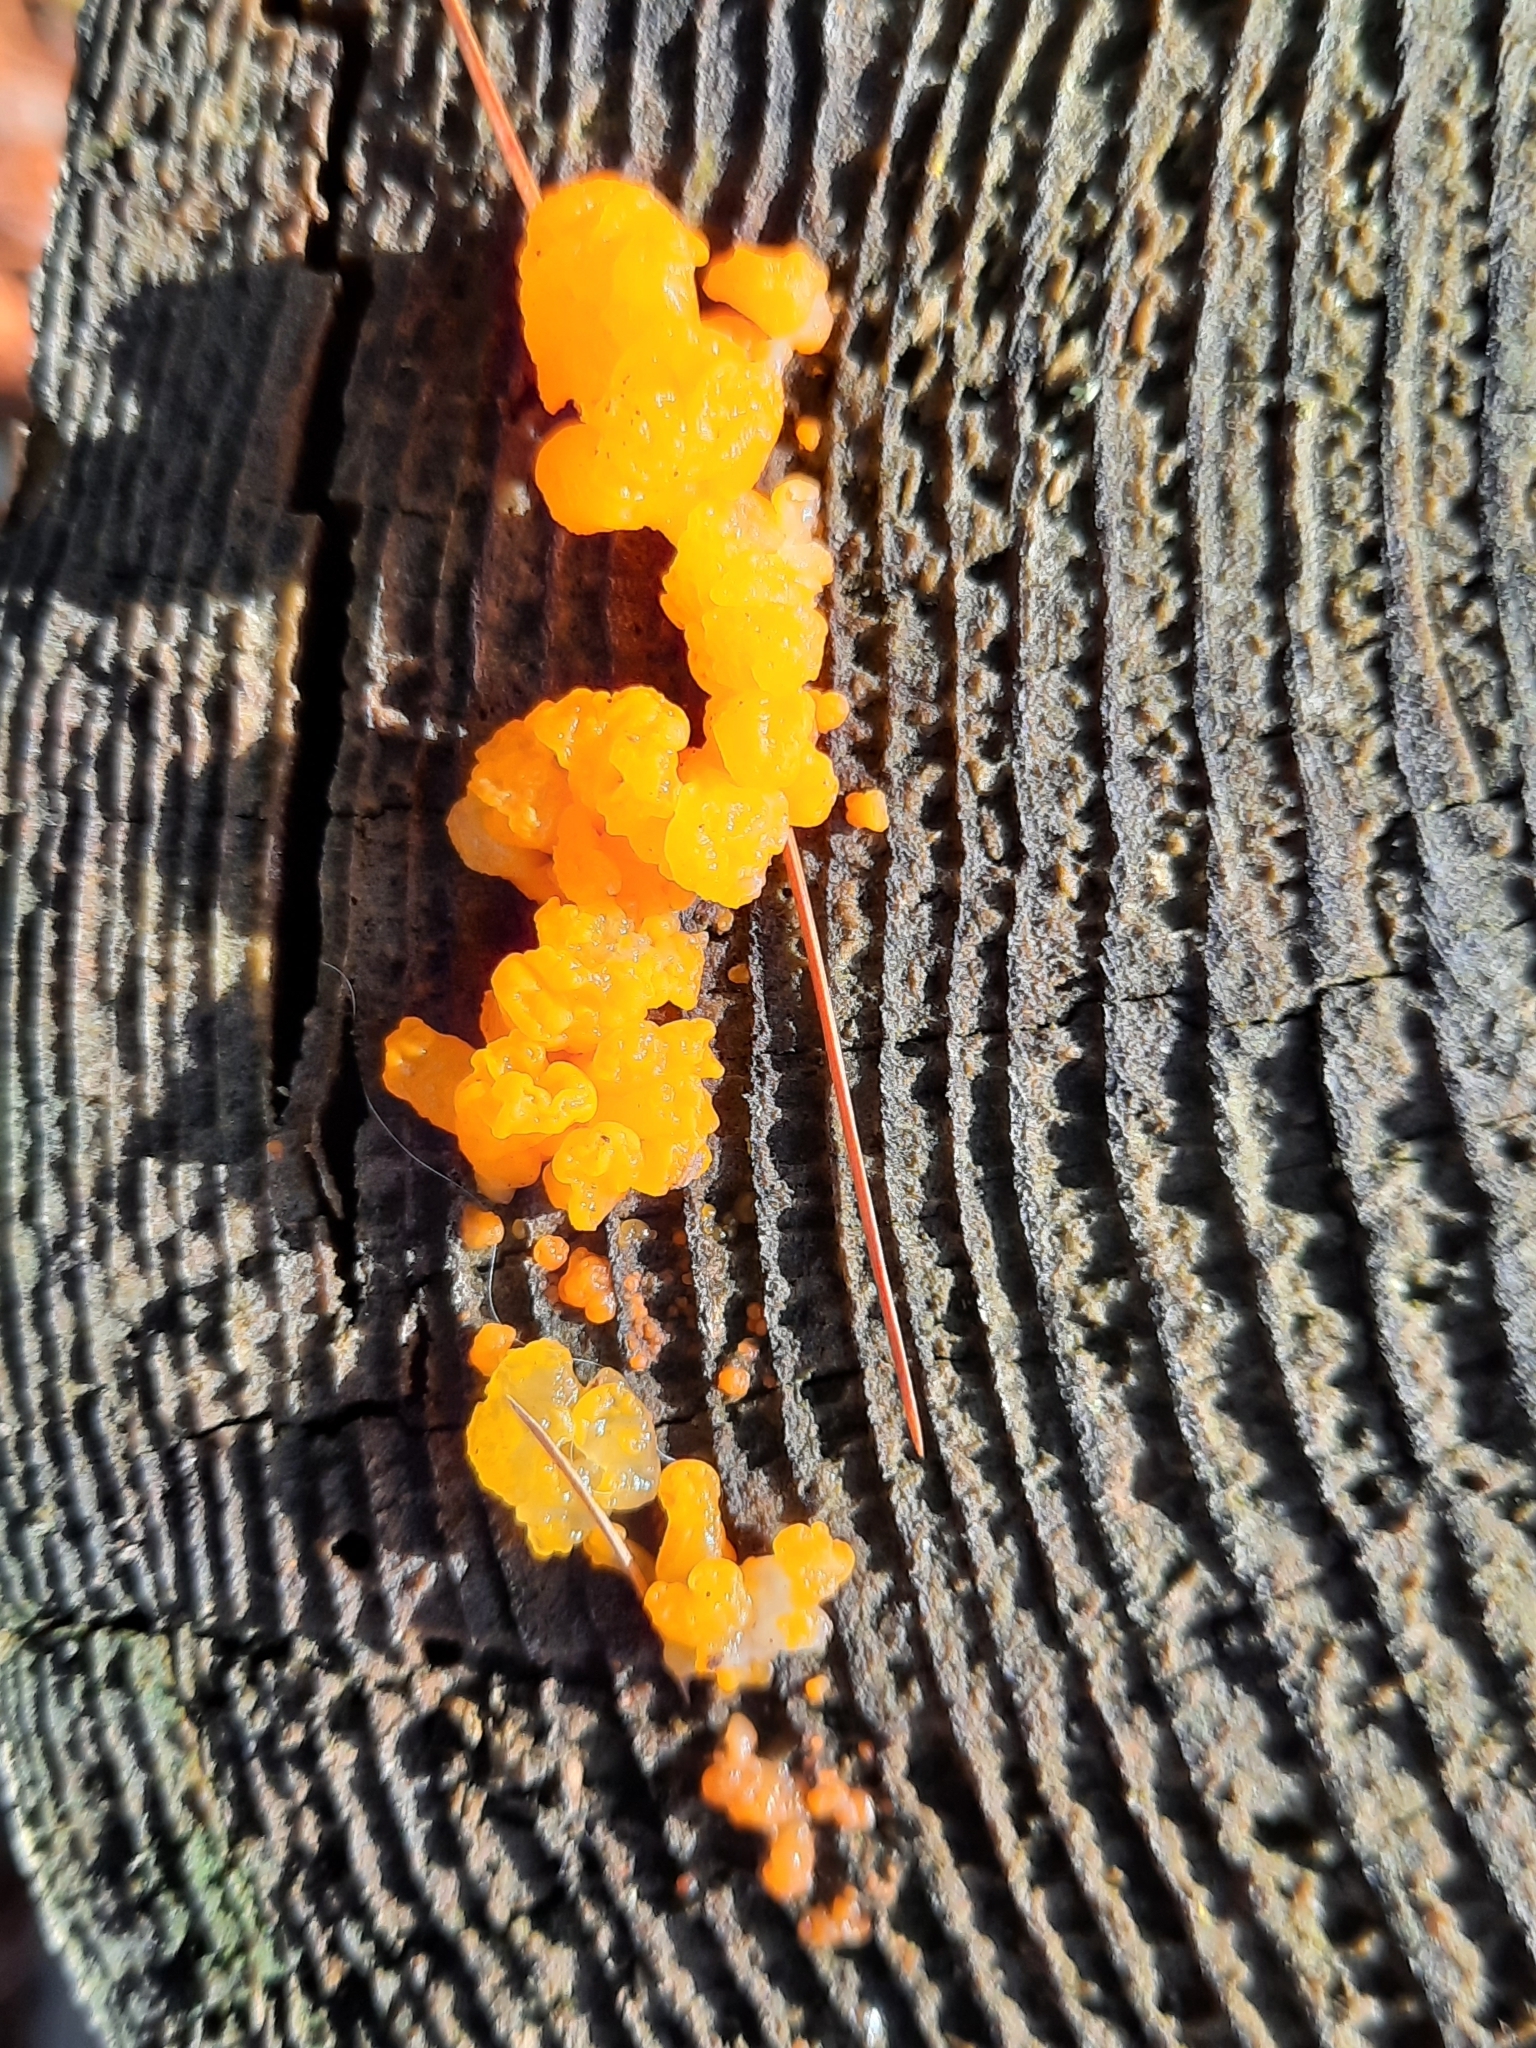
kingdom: Fungi
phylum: Basidiomycota
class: Dacrymycetes
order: Dacrymycetales
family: Dacrymycetaceae
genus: Dacrymyces
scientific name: Dacrymyces chrysospermus
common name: Orange jelly spot
